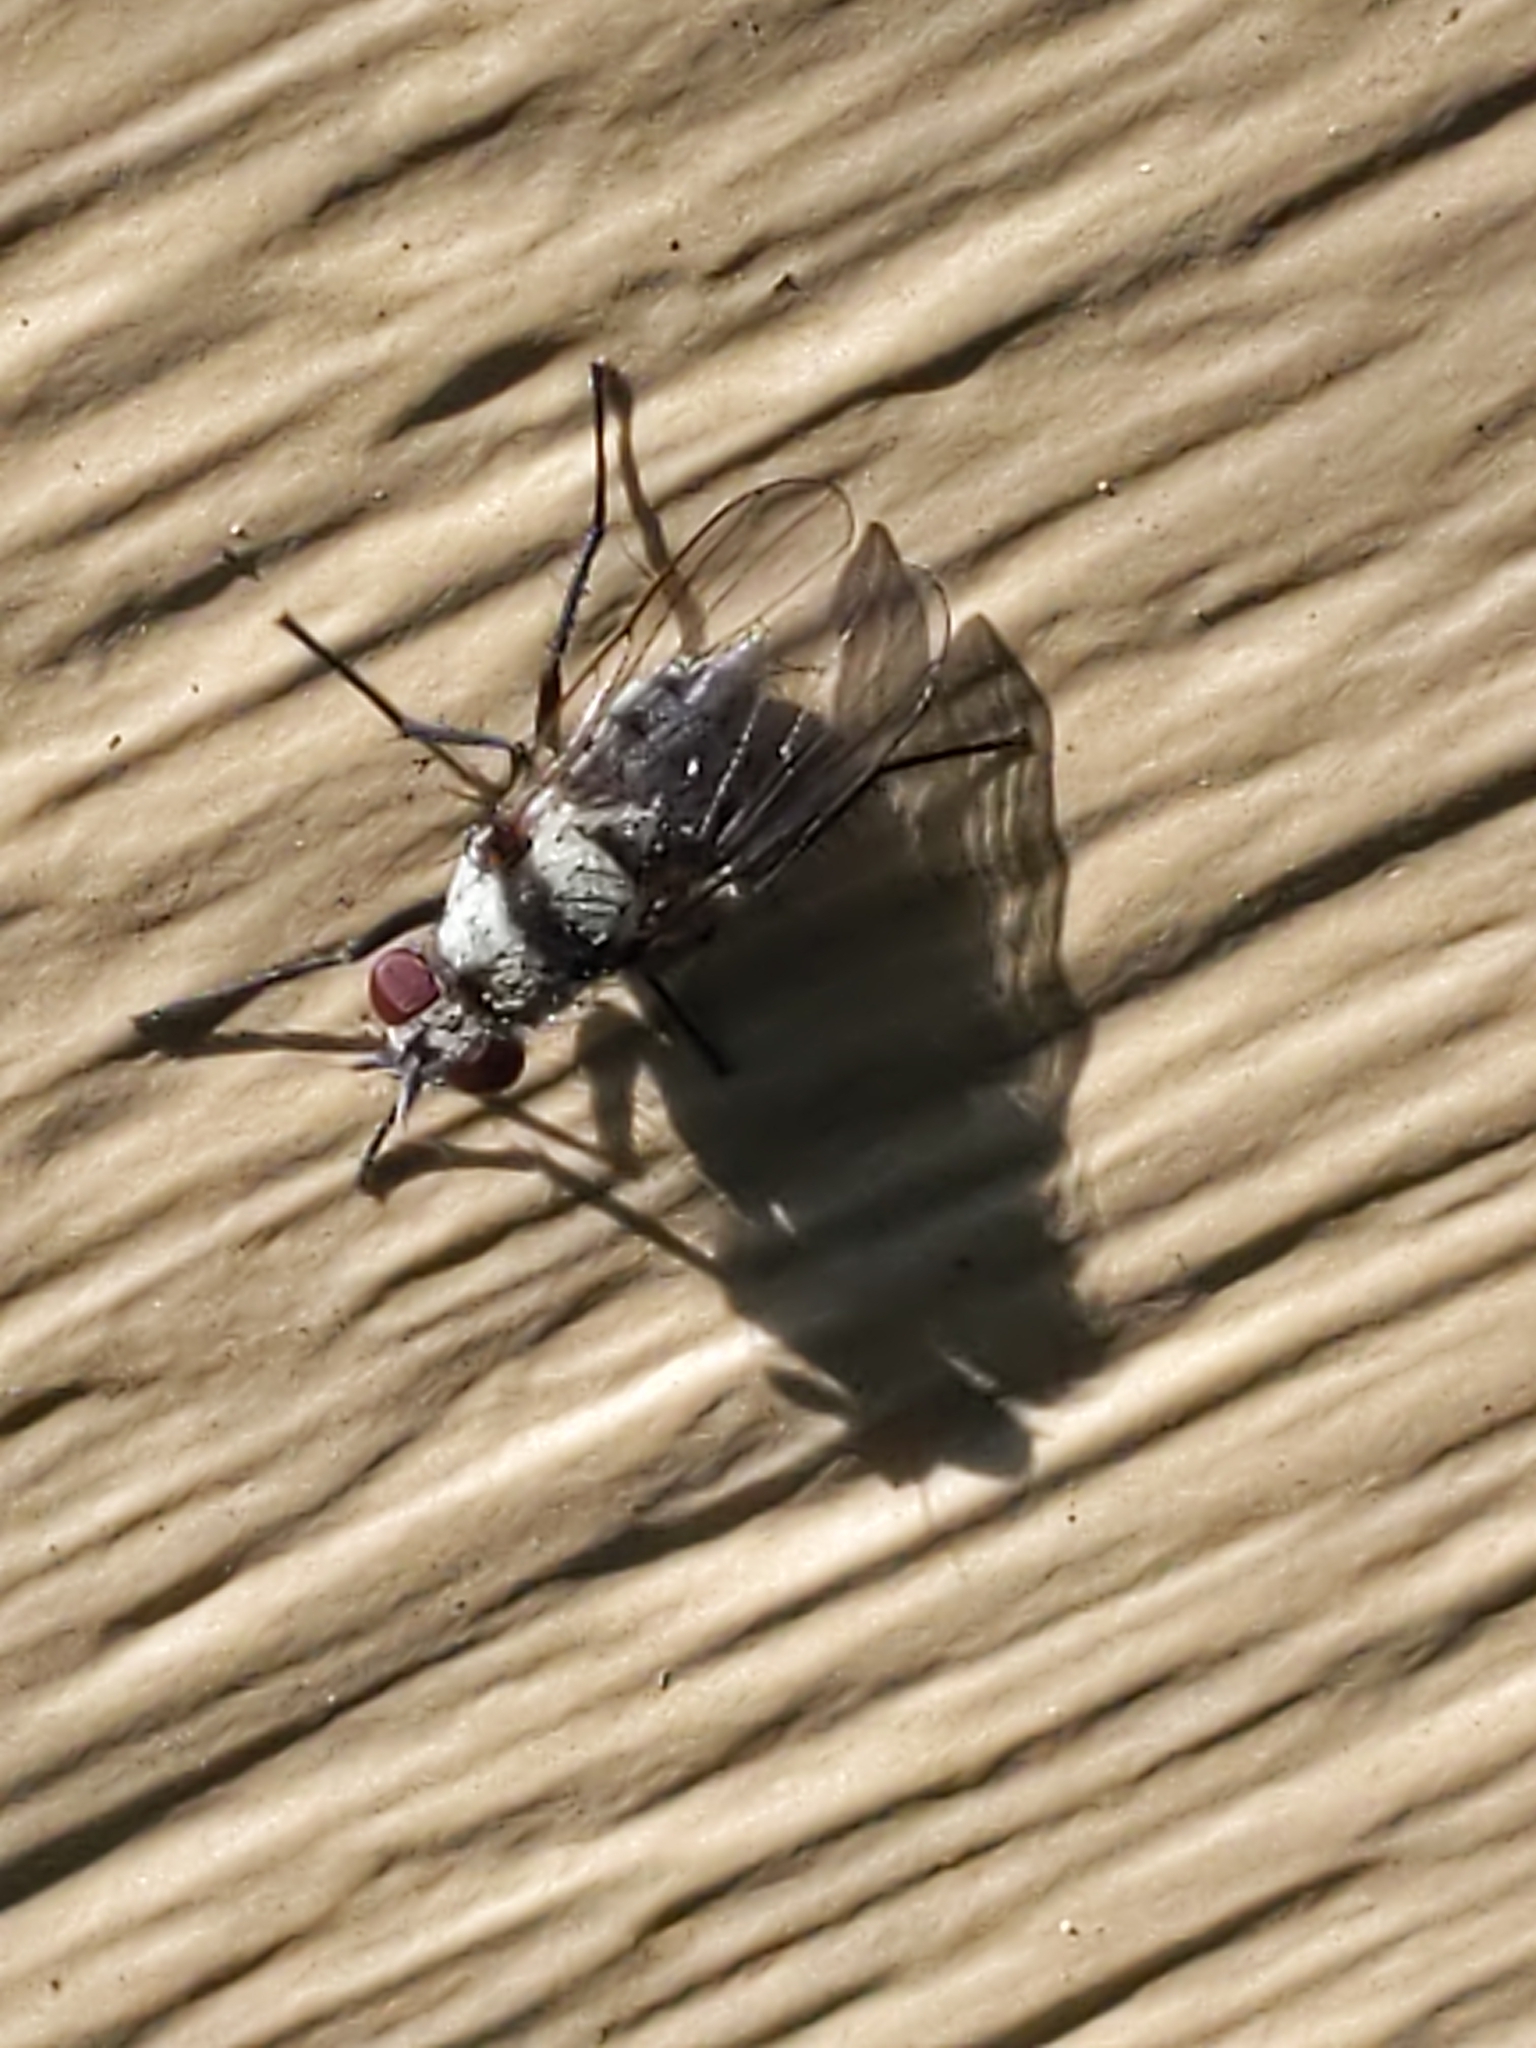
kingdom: Animalia
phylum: Arthropoda
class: Insecta
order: Diptera
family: Anthomyiidae
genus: Anthomyia
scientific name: Anthomyia illocata
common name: Fly
